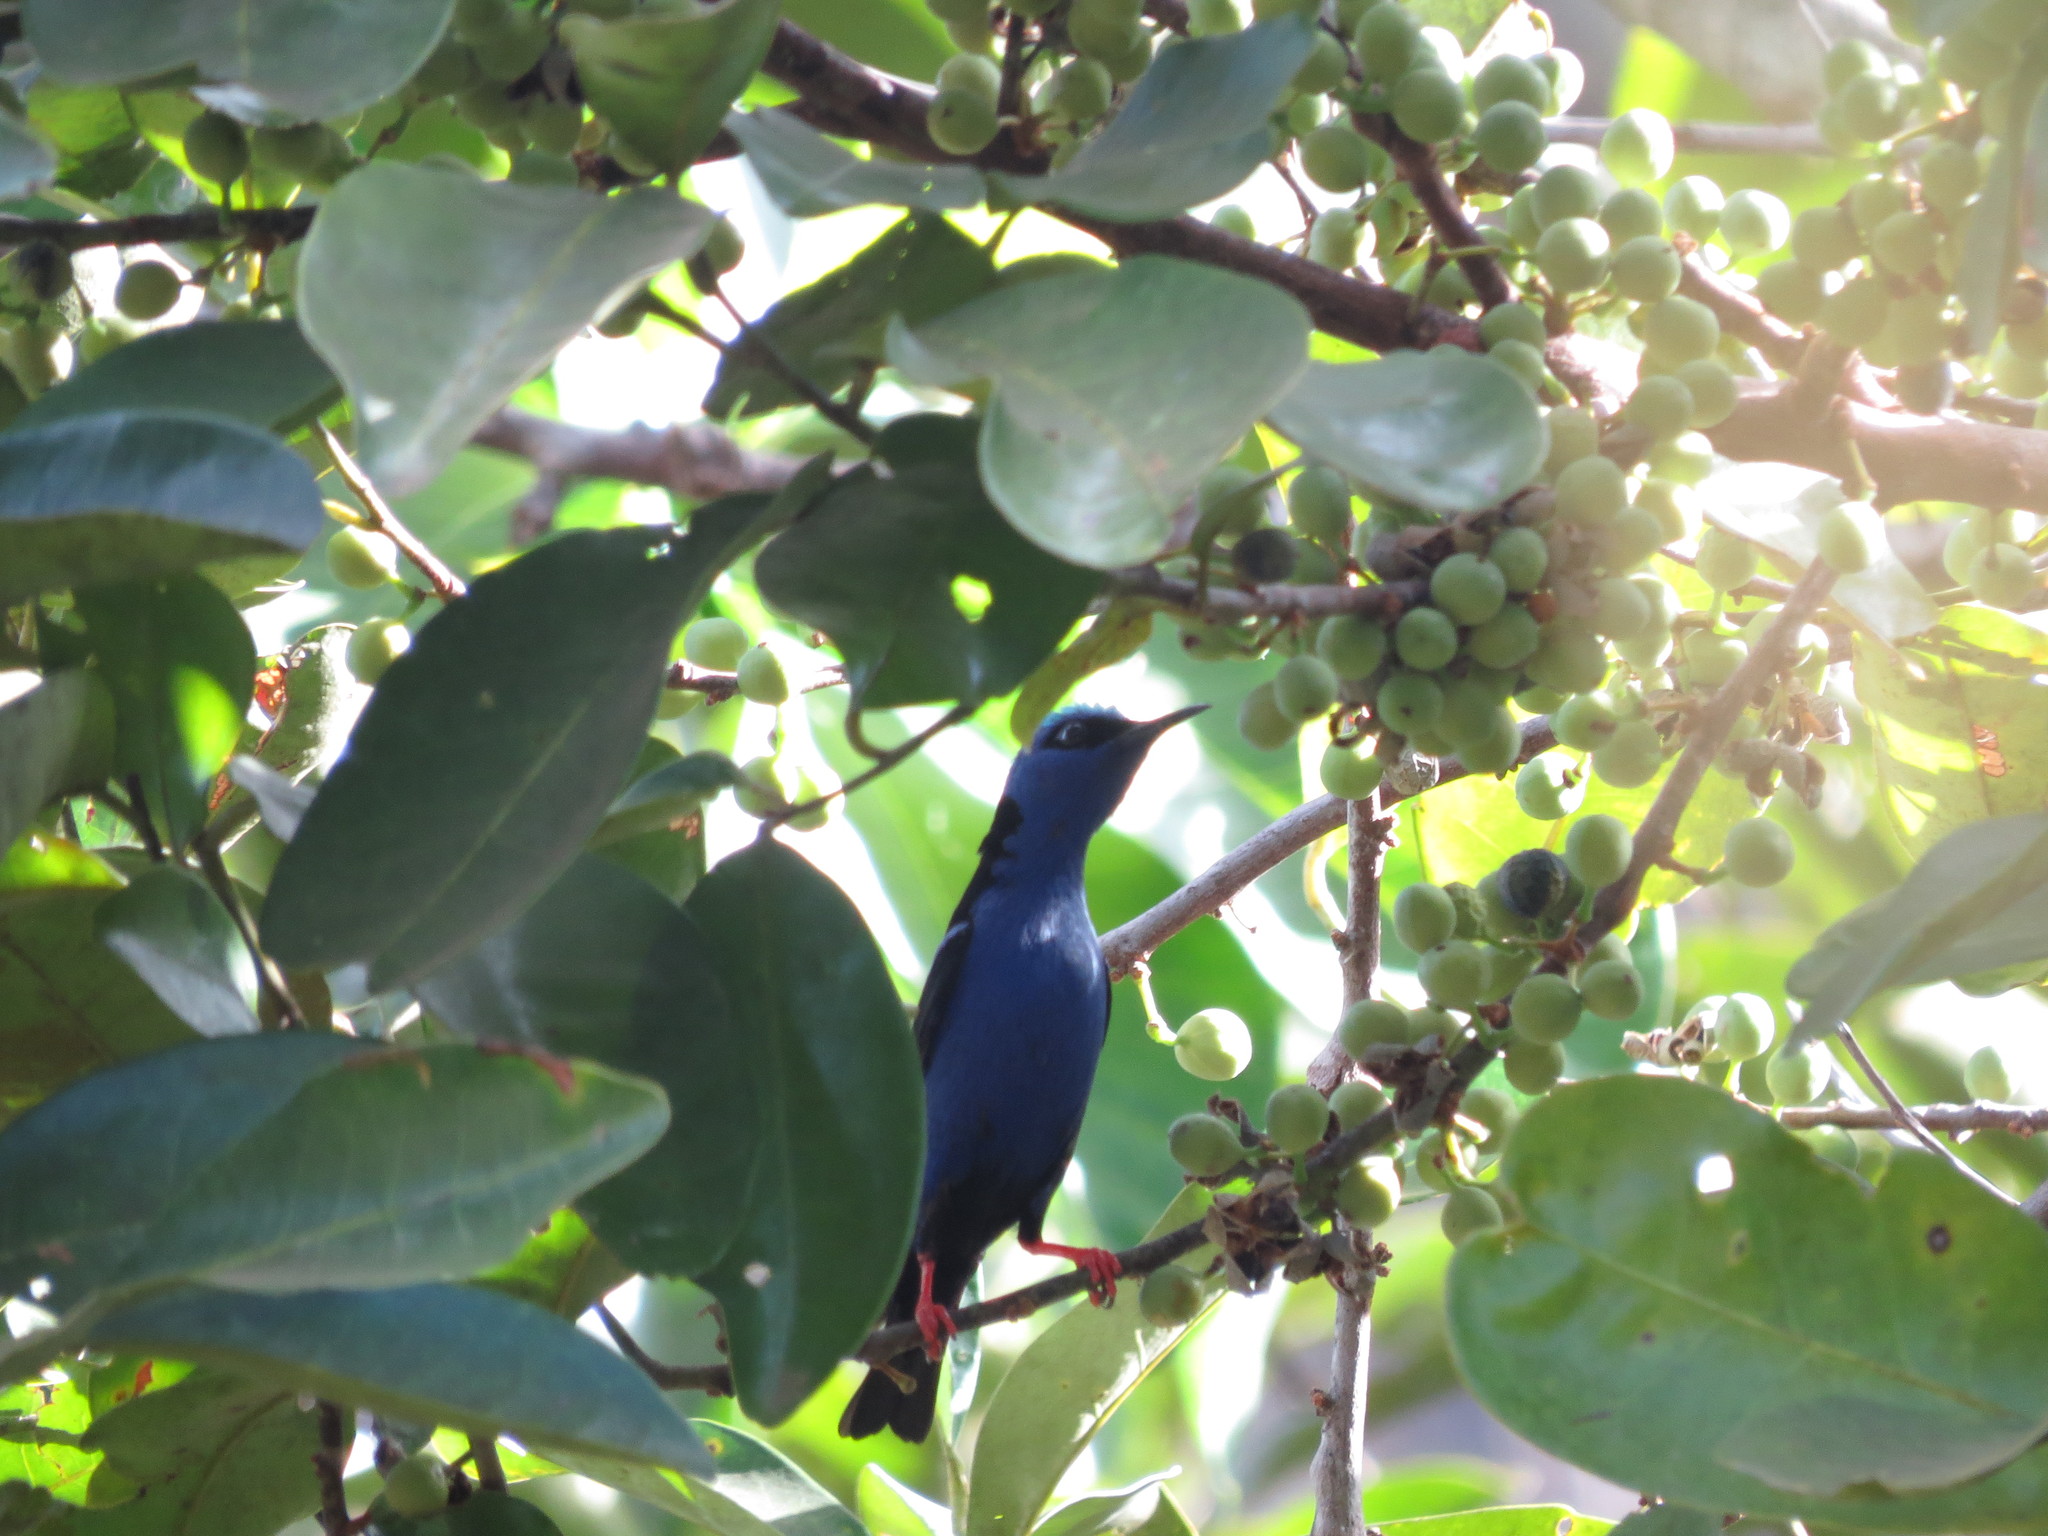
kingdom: Animalia
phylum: Chordata
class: Aves
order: Passeriformes
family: Thraupidae
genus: Cyanerpes
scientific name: Cyanerpes cyaneus
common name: Red-legged honeycreeper
